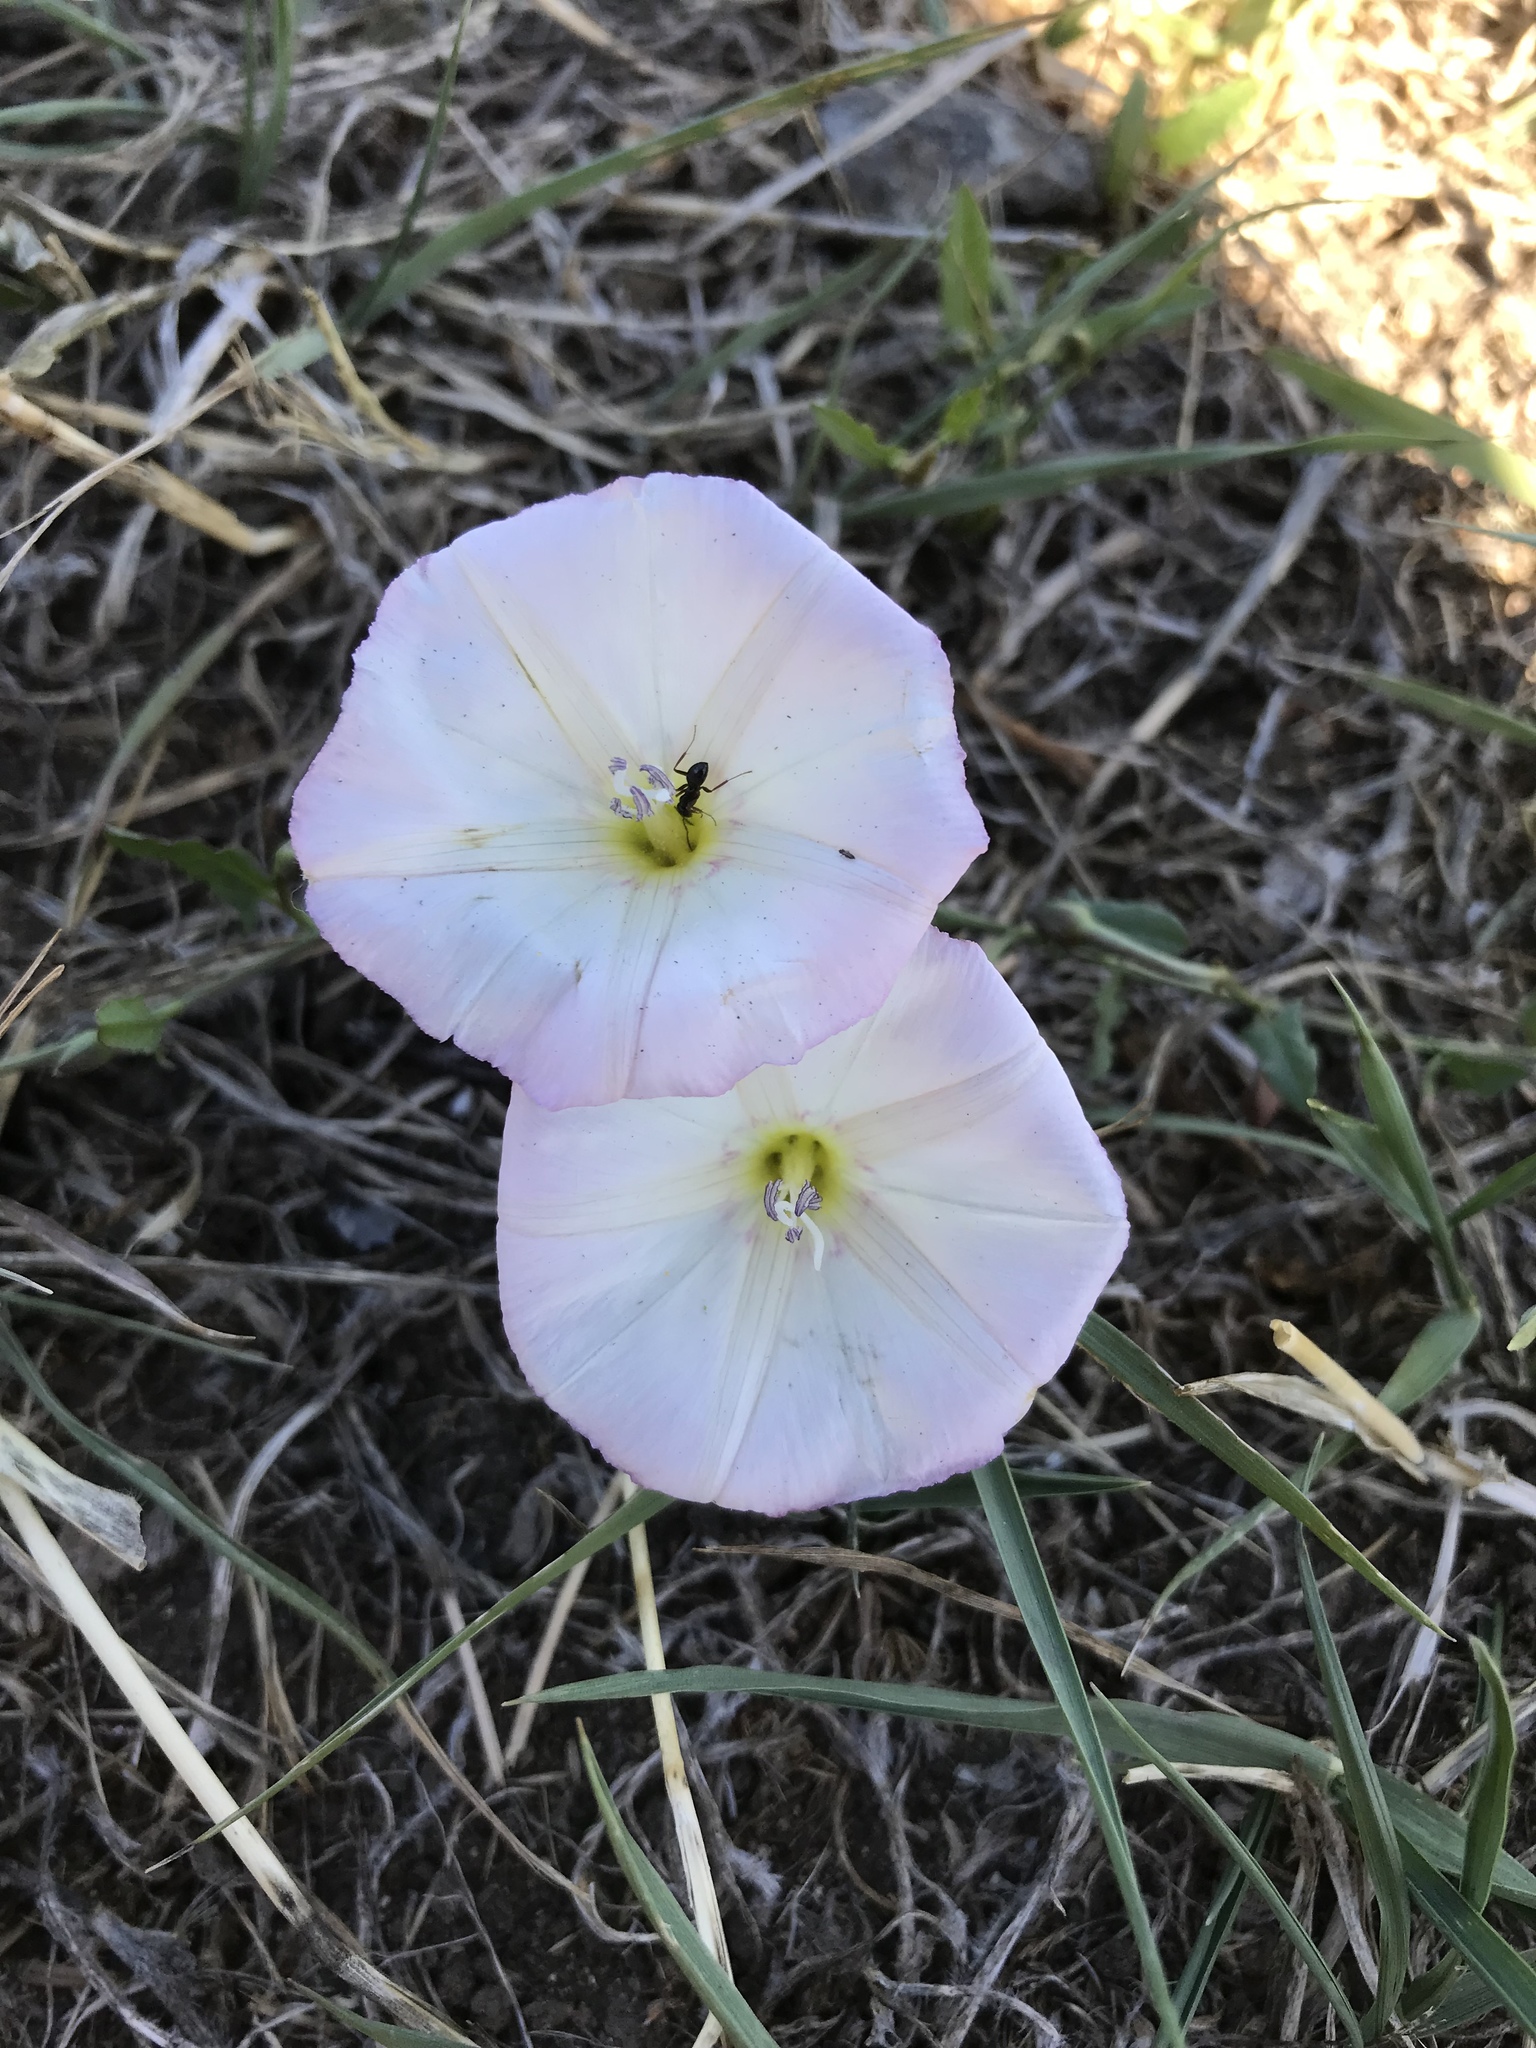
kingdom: Plantae
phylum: Tracheophyta
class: Magnoliopsida
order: Solanales
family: Convolvulaceae
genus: Convolvulus
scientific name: Convolvulus arvensis
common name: Field bindweed
